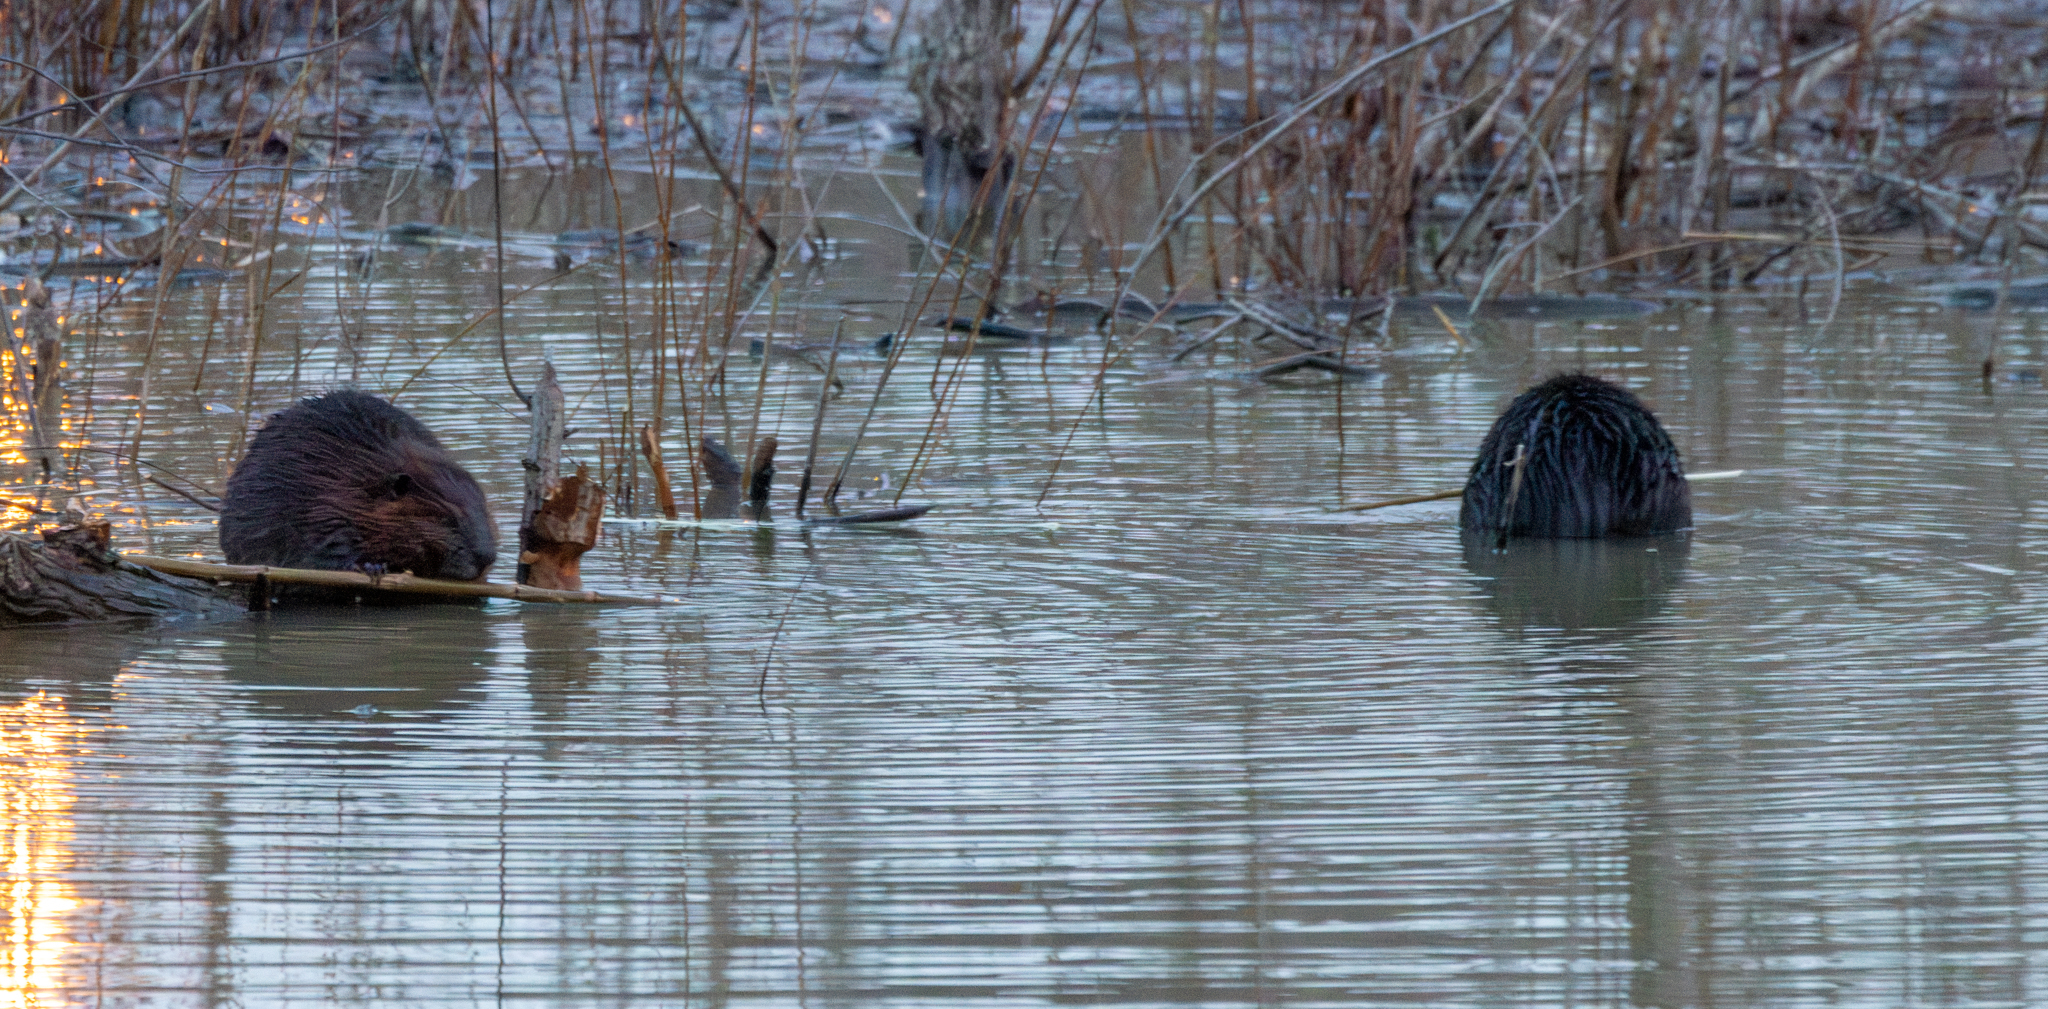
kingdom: Animalia
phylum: Chordata
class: Mammalia
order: Rodentia
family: Castoridae
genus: Castor
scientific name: Castor canadensis
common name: American beaver
